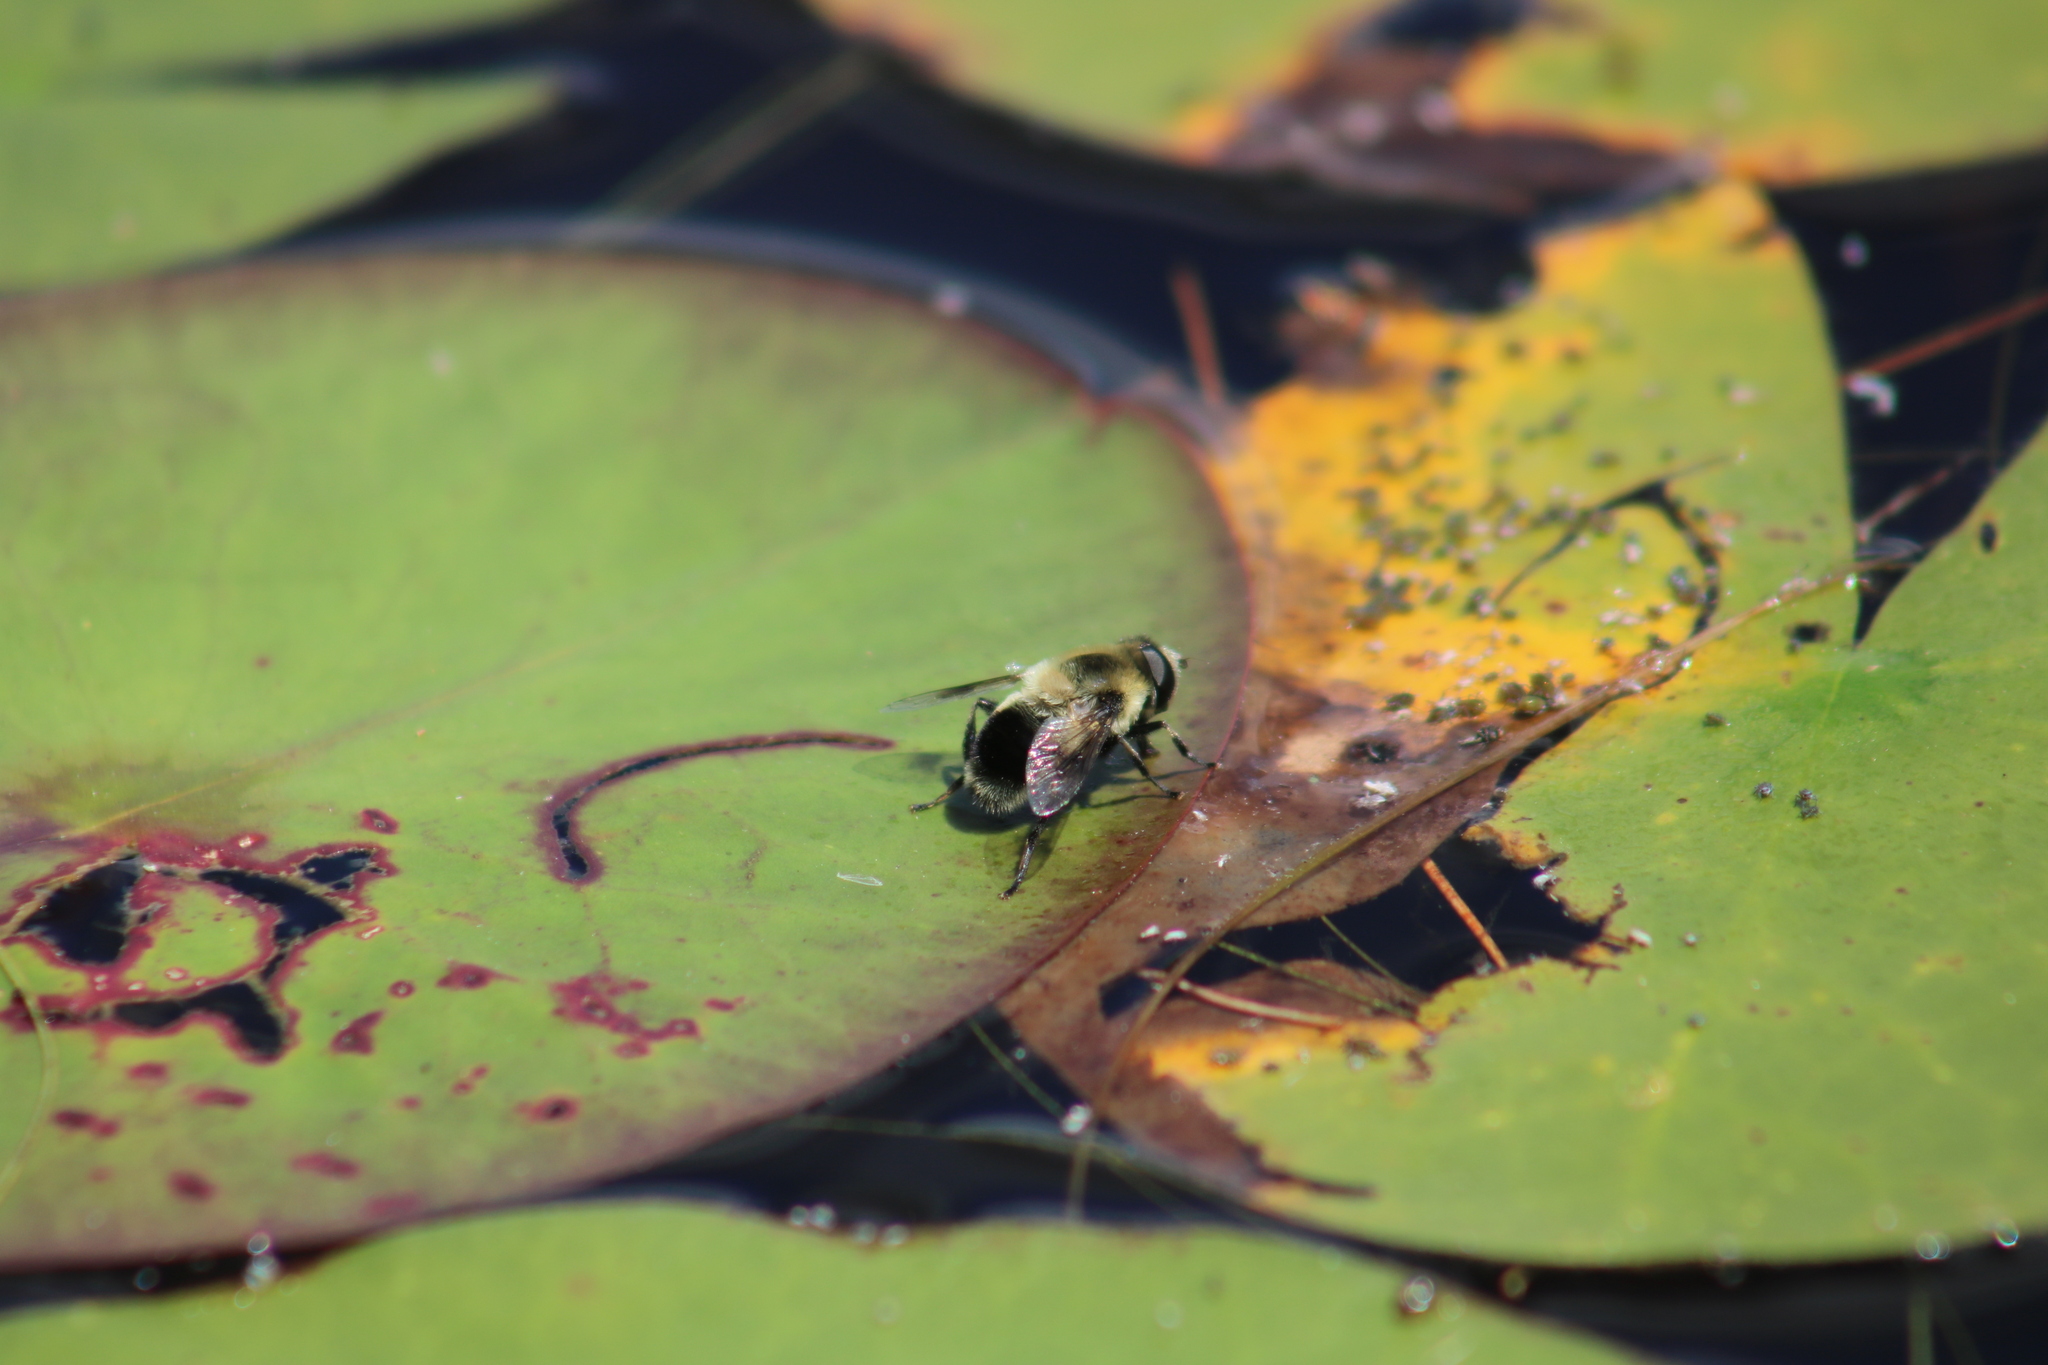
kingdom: Animalia
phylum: Arthropoda
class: Insecta
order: Diptera
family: Syrphidae
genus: Eristalis
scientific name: Eristalis anthophorina
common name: Orange-spotted drone fly
